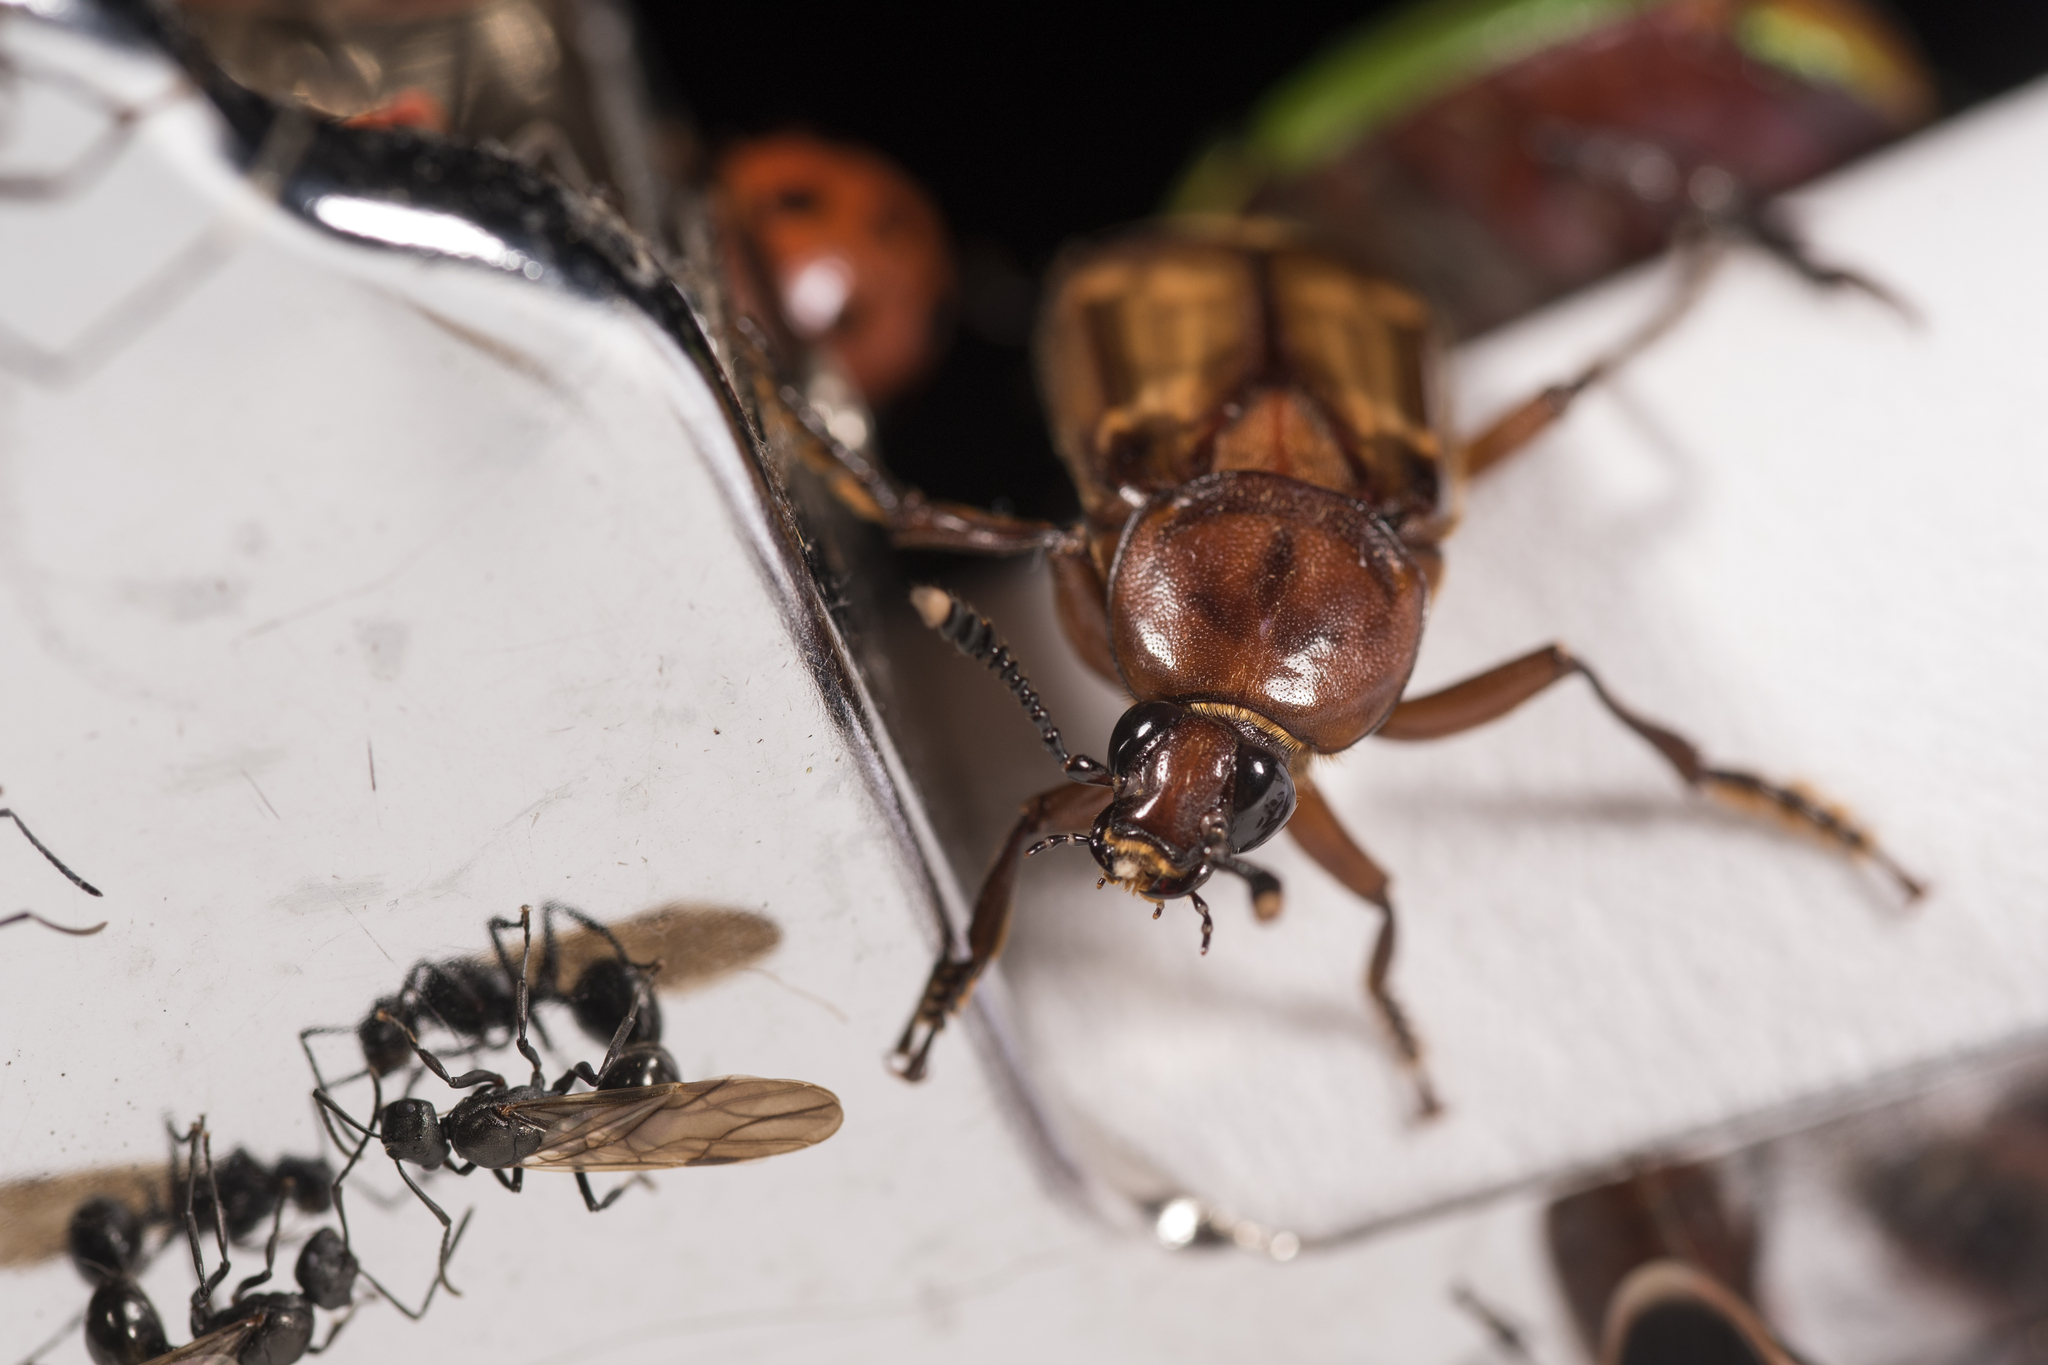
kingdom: Animalia
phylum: Arthropoda
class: Insecta
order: Coleoptera
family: Staphylinidae
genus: Diamesus
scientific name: Diamesus osculans
